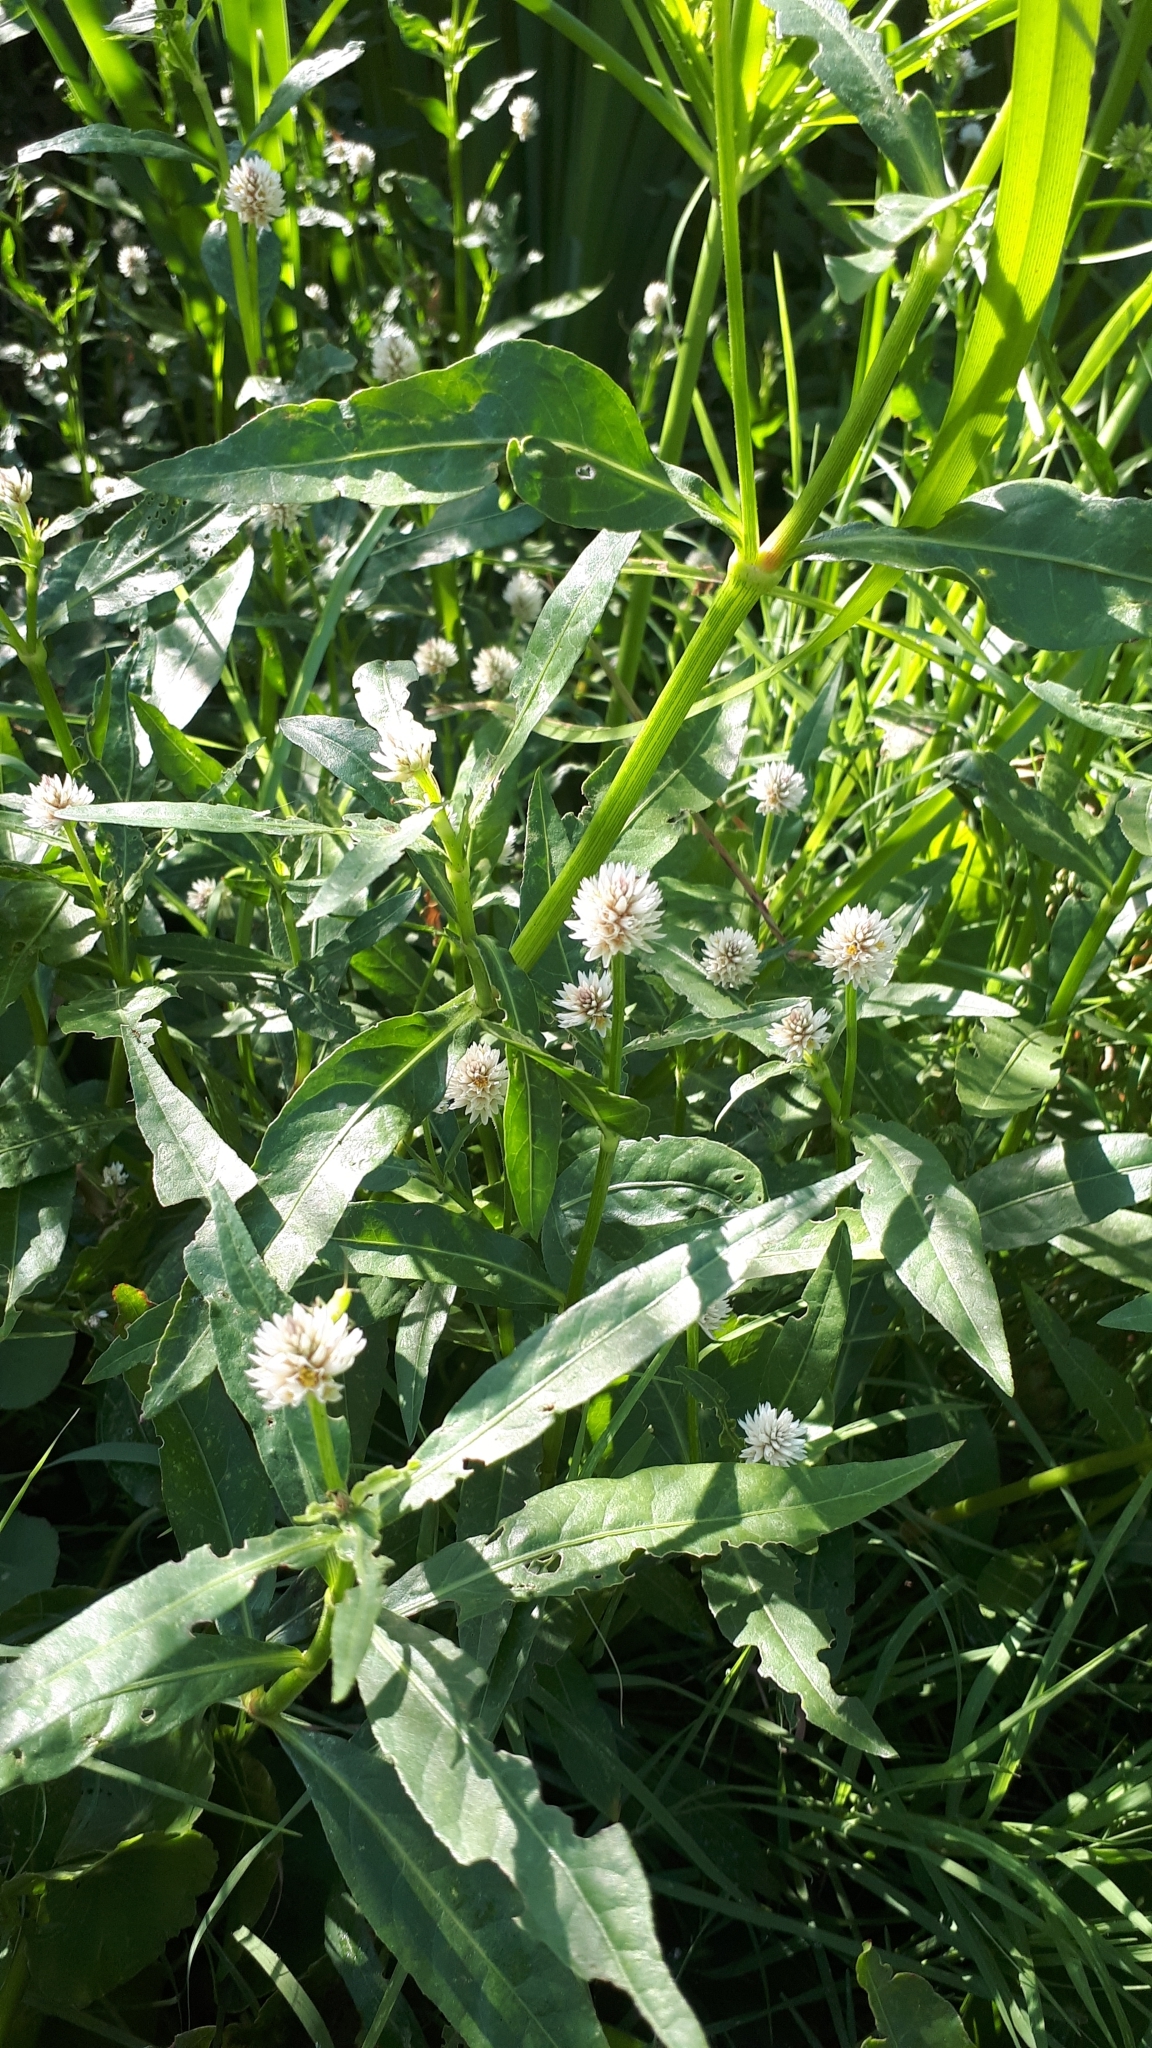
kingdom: Plantae
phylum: Tracheophyta
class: Magnoliopsida
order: Caryophyllales
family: Amaranthaceae
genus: Alternanthera
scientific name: Alternanthera philoxeroides
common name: Alligatorweed
